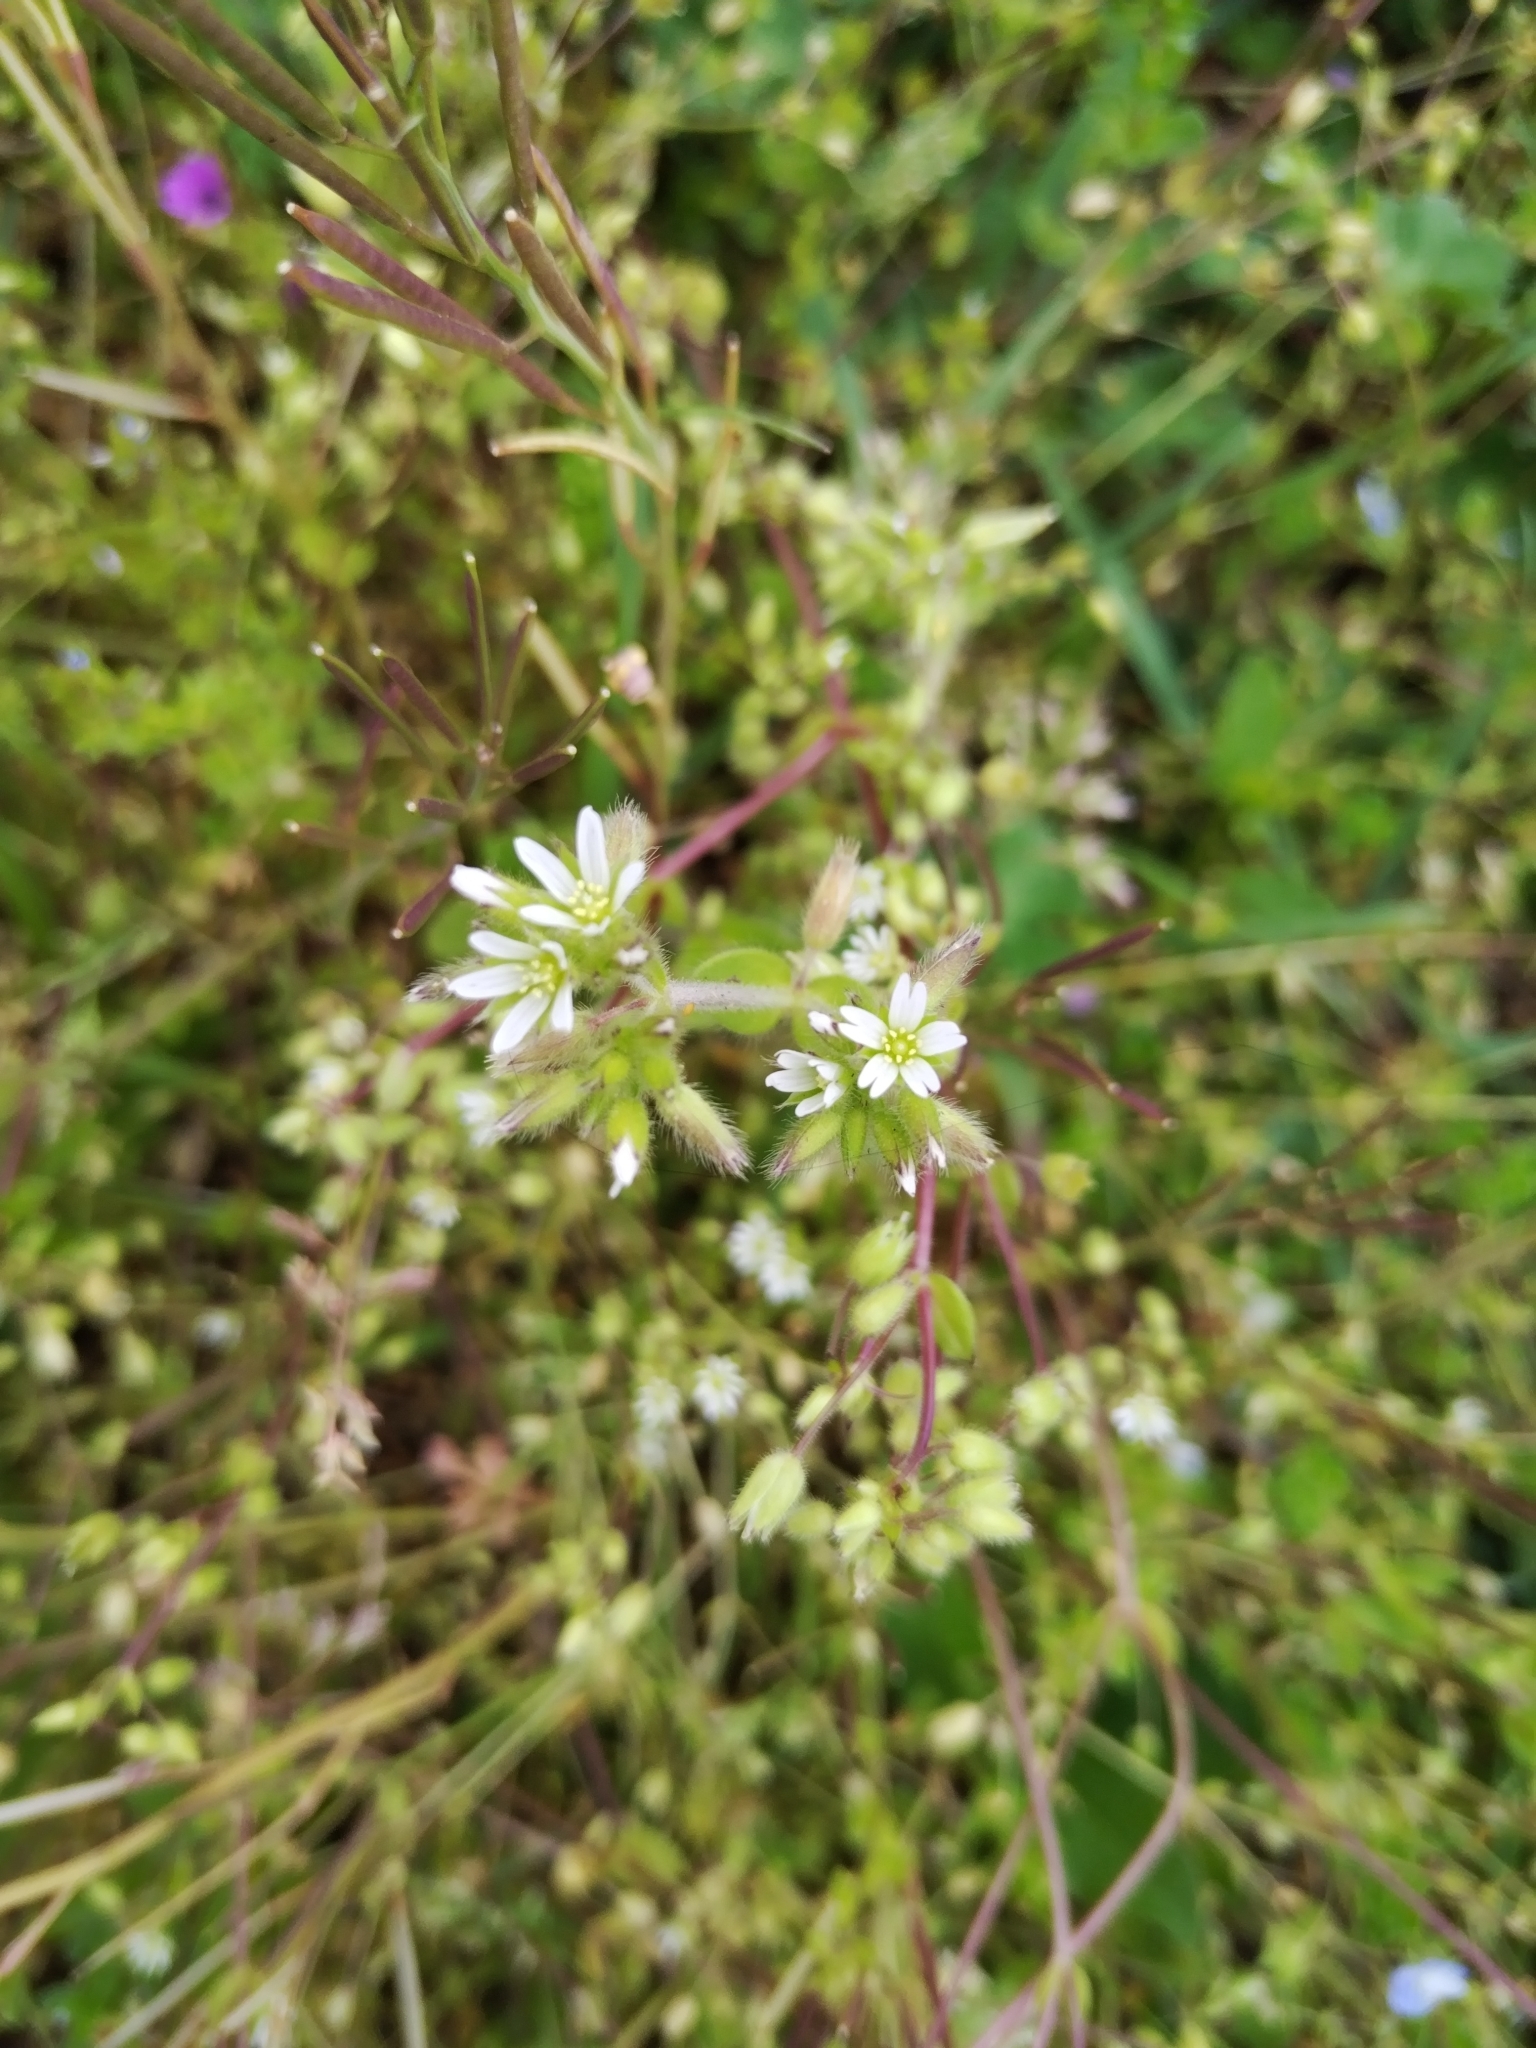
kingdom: Plantae
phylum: Tracheophyta
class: Magnoliopsida
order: Caryophyllales
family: Caryophyllaceae
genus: Cerastium
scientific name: Cerastium glomeratum
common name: Sticky chickweed
